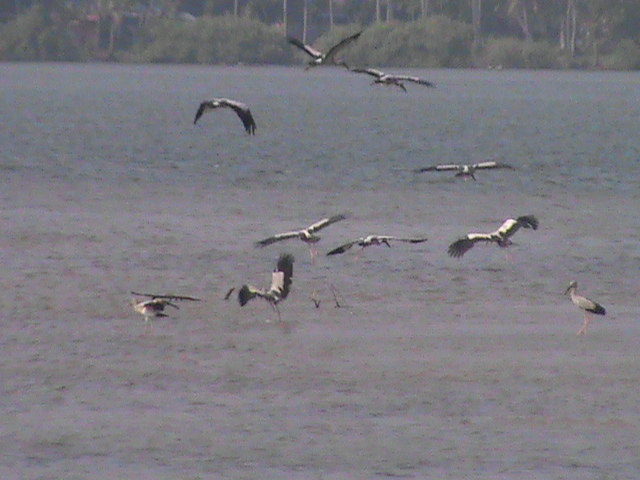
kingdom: Animalia
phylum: Chordata
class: Aves
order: Ciconiiformes
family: Ciconiidae
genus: Anastomus
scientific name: Anastomus oscitans
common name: Asian openbill
